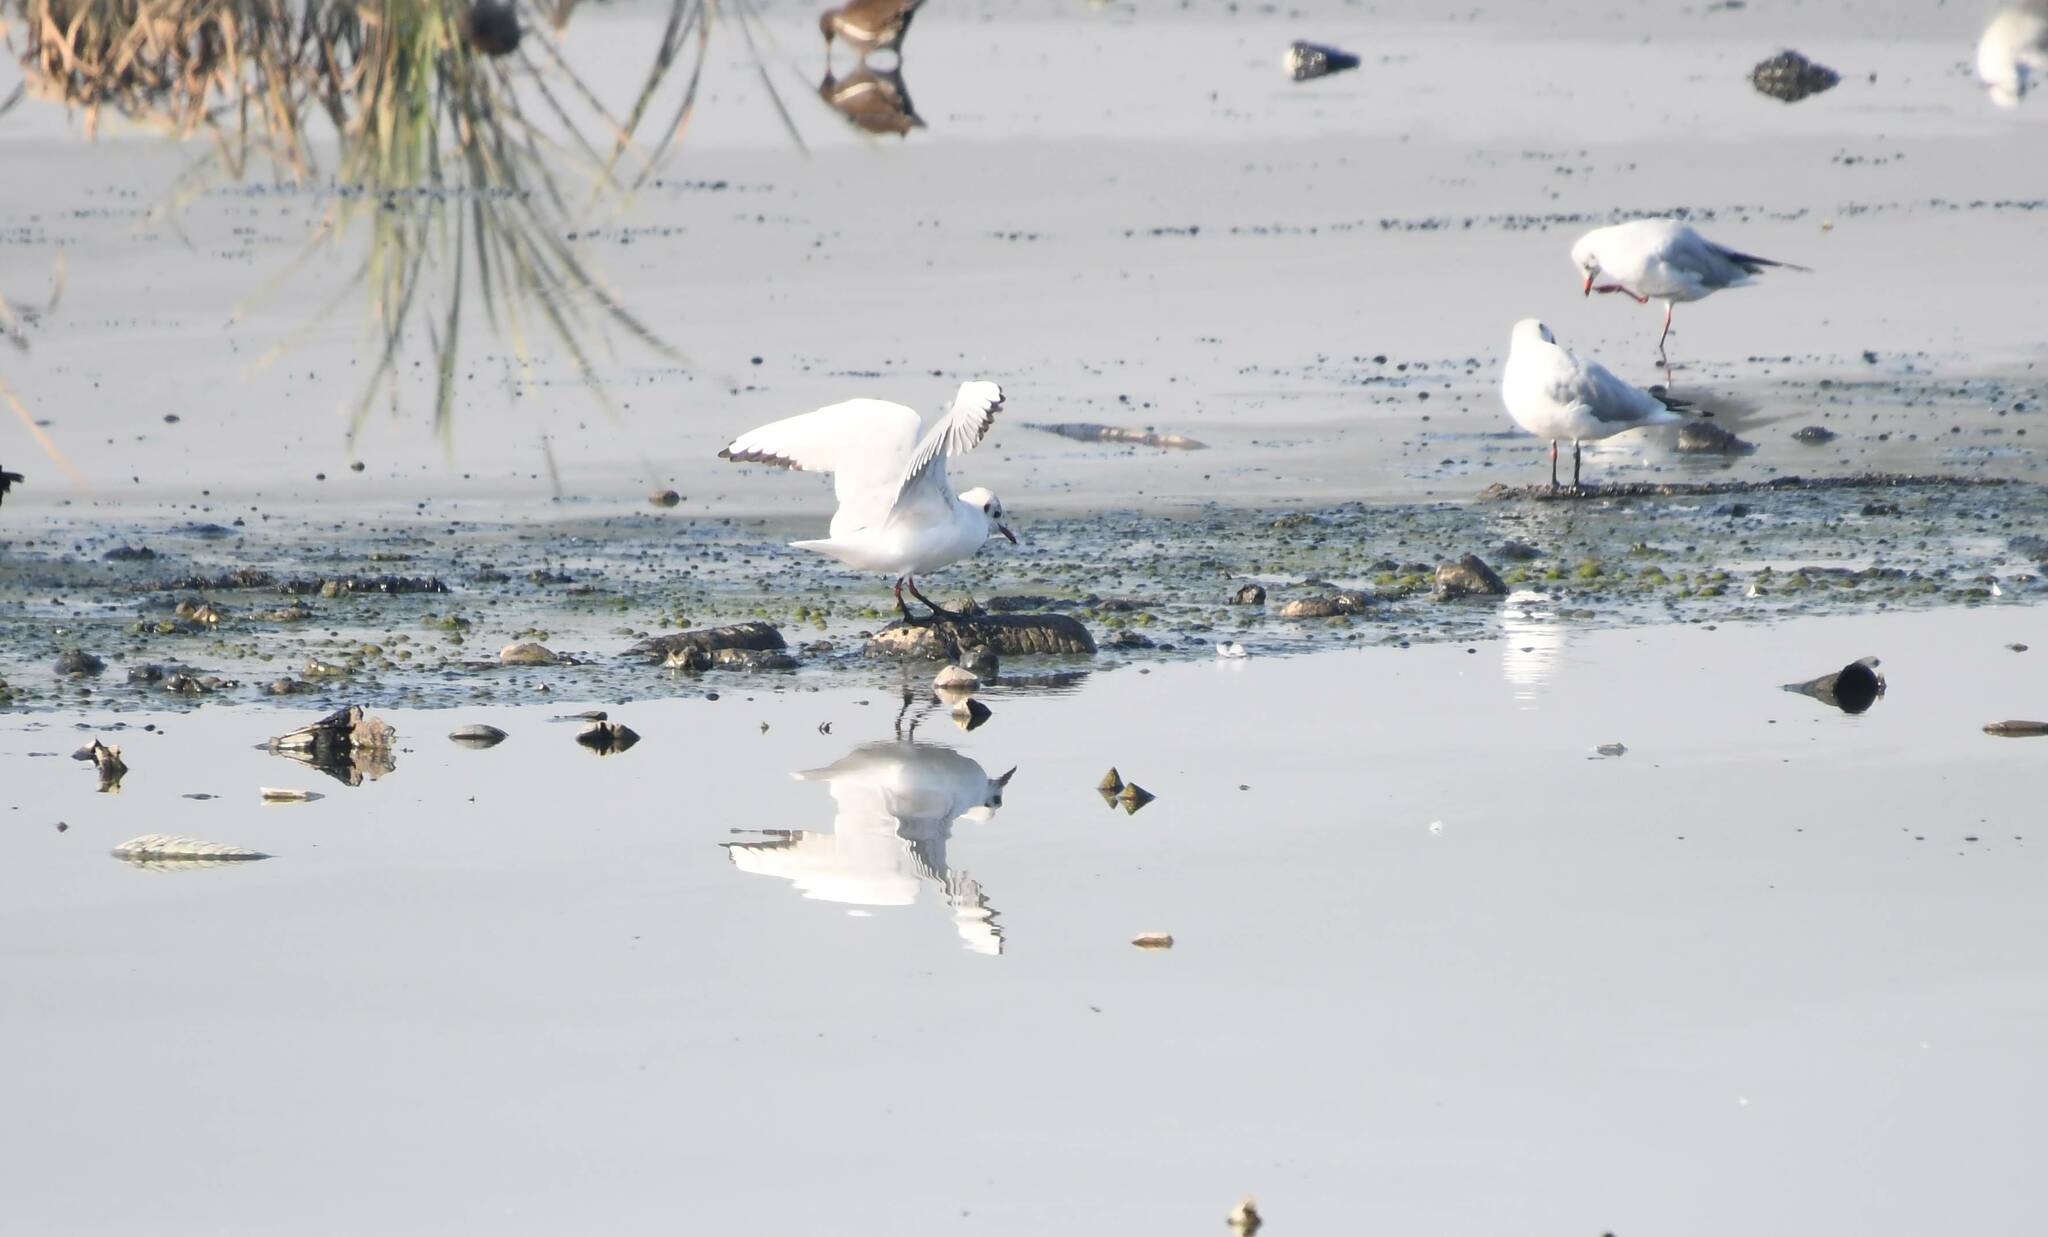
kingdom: Animalia
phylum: Chordata
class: Aves
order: Charadriiformes
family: Laridae
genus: Chroicocephalus
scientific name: Chroicocephalus ridibundus
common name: Black-headed gull
